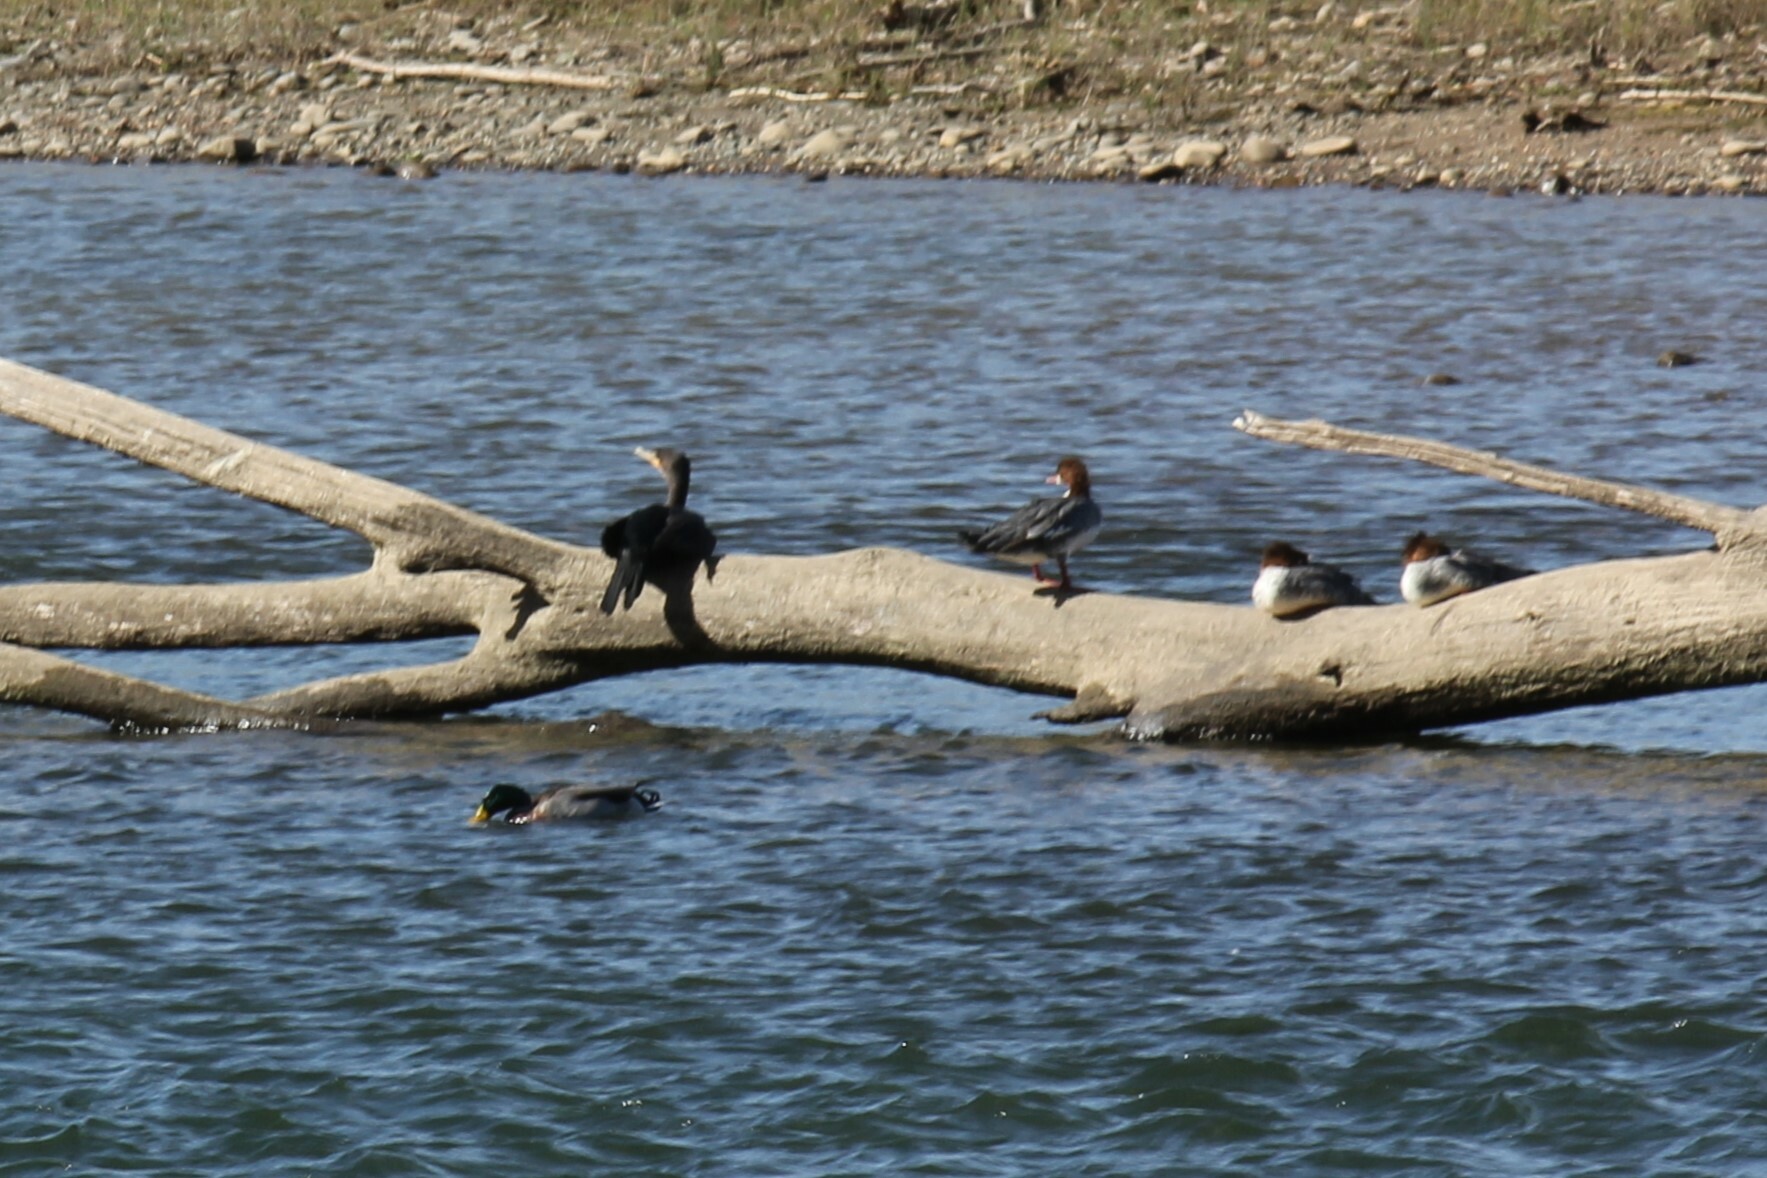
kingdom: Animalia
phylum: Chordata
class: Aves
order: Suliformes
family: Phalacrocoracidae
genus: Phalacrocorax
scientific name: Phalacrocorax auritus
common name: Double-crested cormorant
